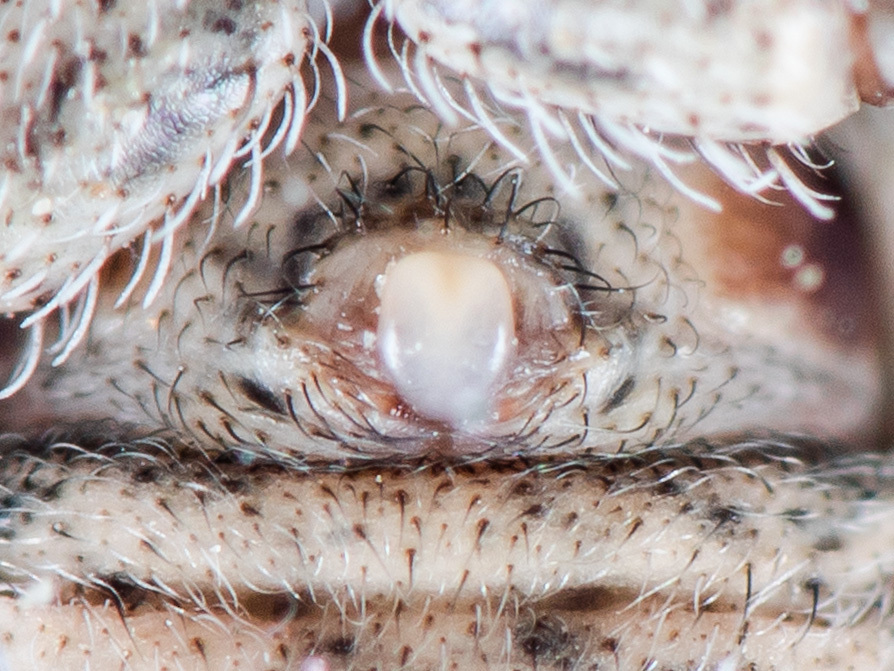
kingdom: Animalia
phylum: Arthropoda
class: Arachnida
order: Araneae
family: Thomisidae
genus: Ozyptila
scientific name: Ozyptila tuberosa
